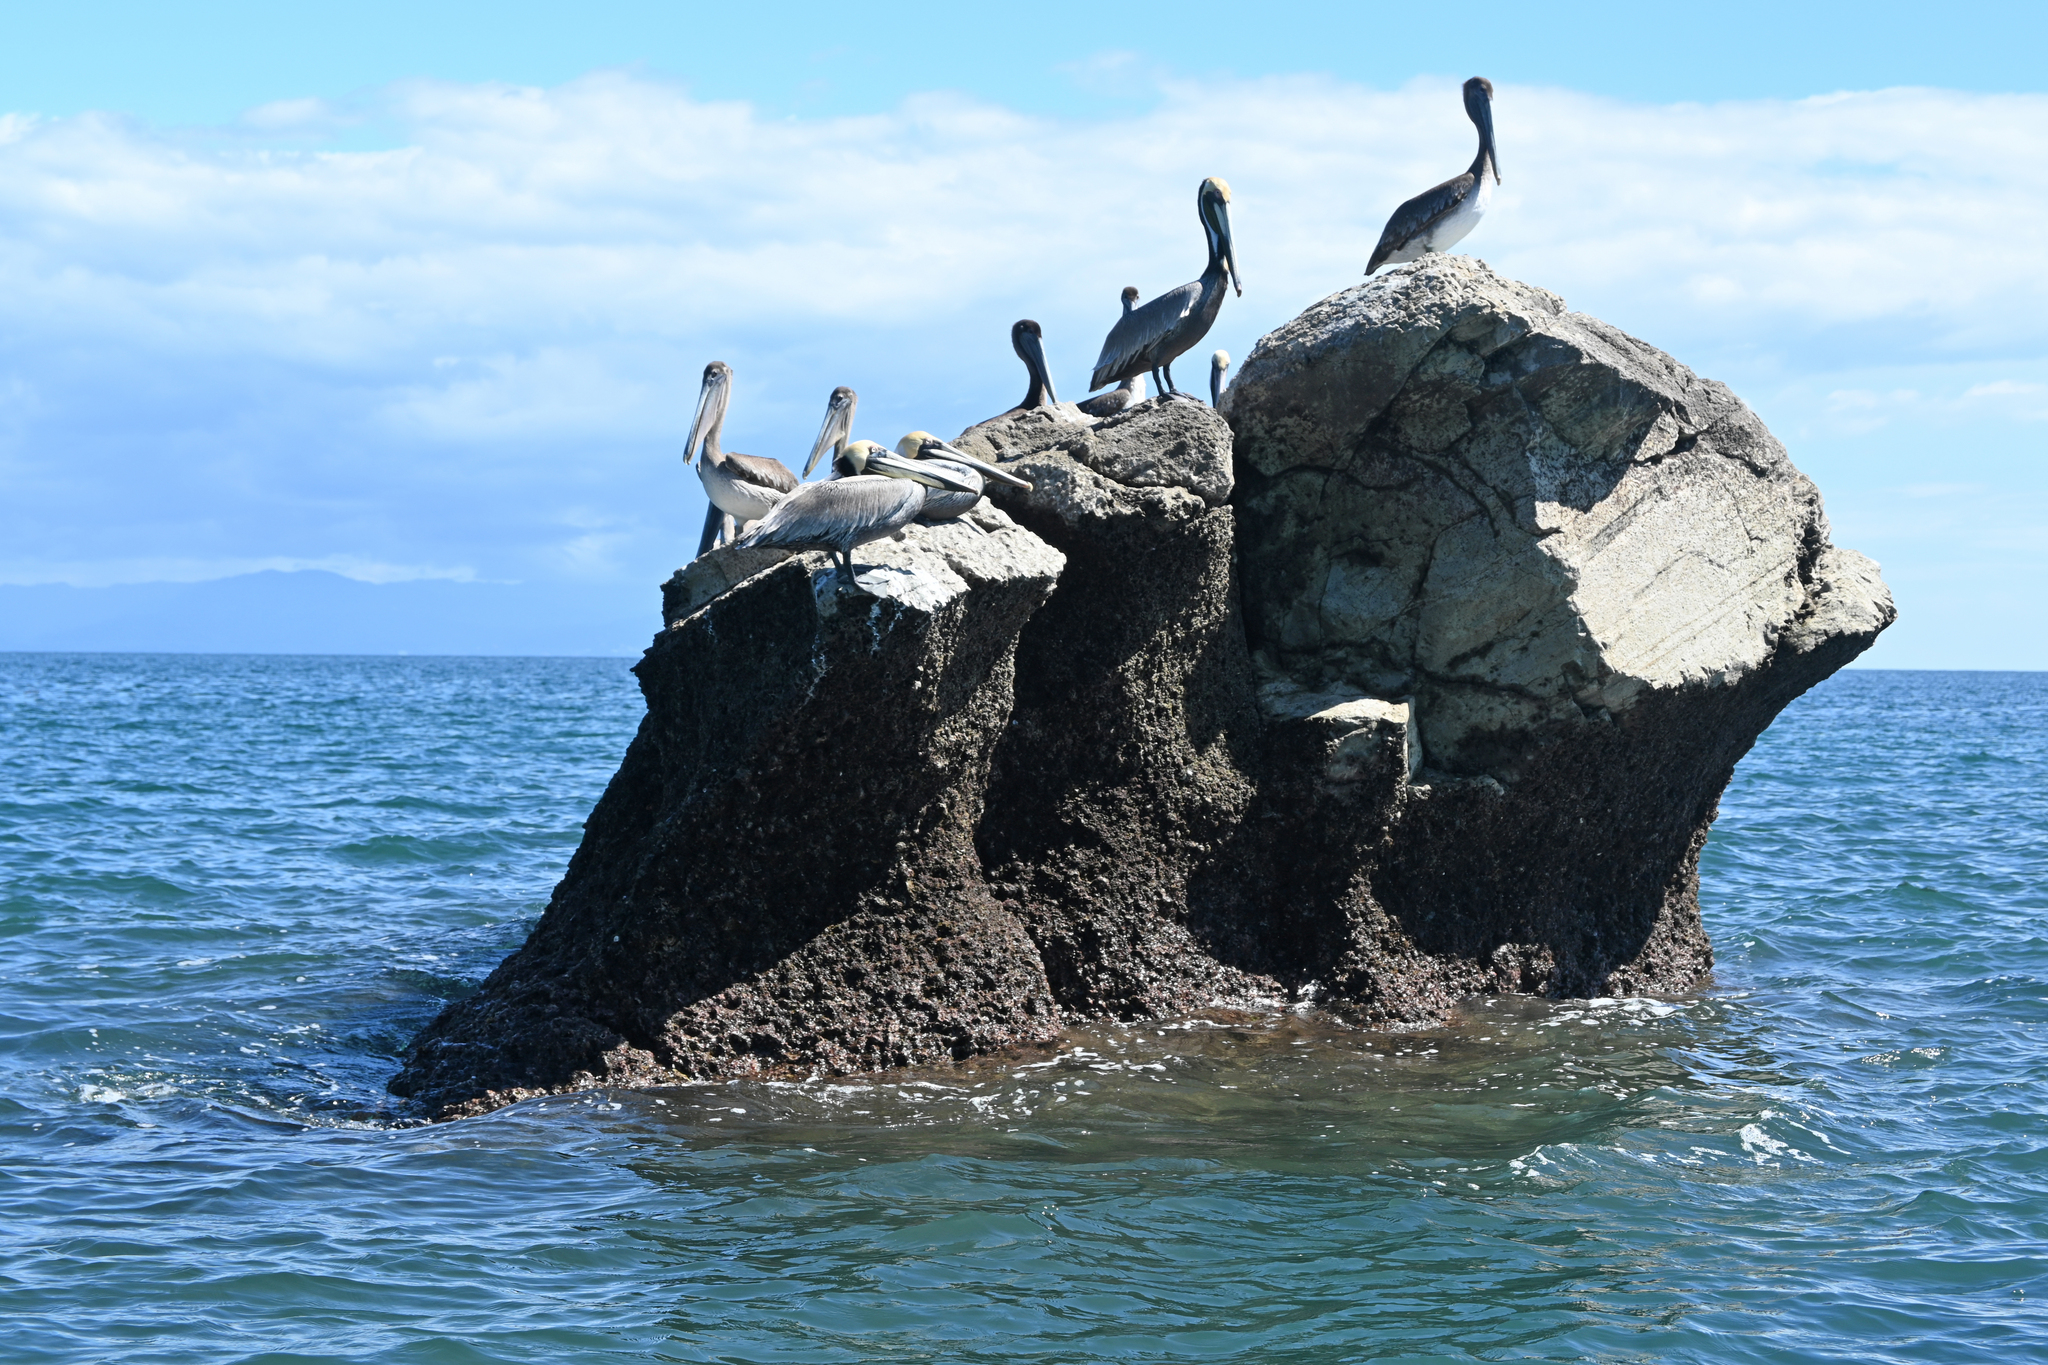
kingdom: Animalia
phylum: Chordata
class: Aves
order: Pelecaniformes
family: Pelecanidae
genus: Pelecanus
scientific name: Pelecanus occidentalis
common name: Brown pelican
